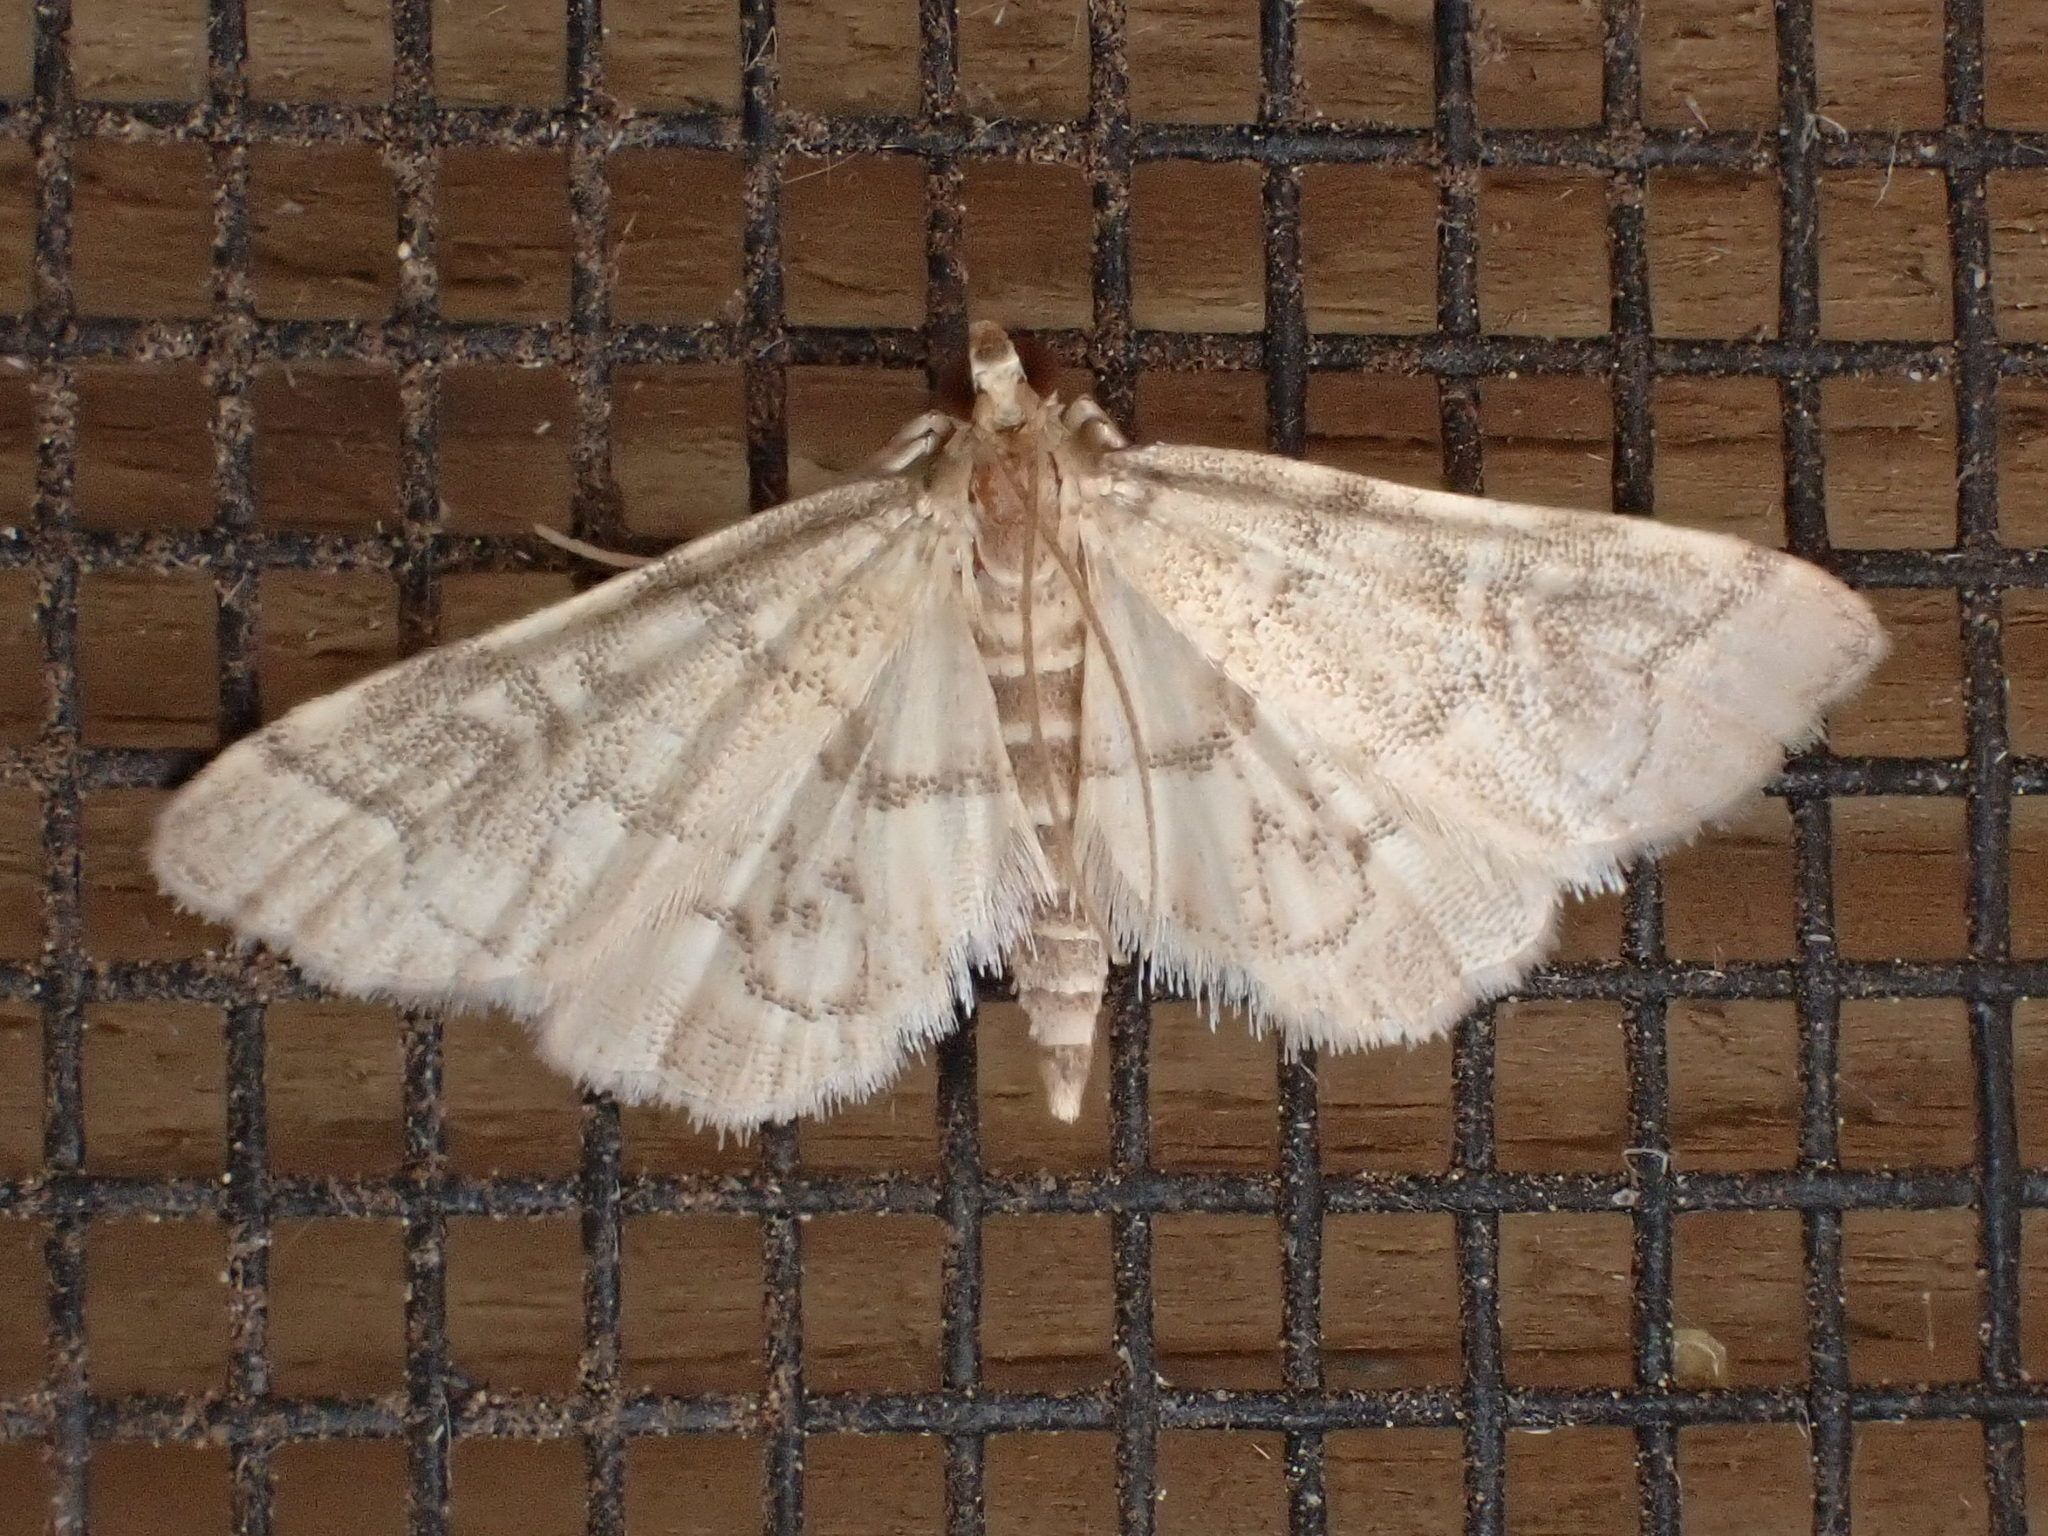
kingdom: Animalia
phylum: Arthropoda
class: Insecta
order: Lepidoptera
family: Crambidae
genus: Anageshna
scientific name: Anageshna primordialis
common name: Yellow-spotted webworm moth
